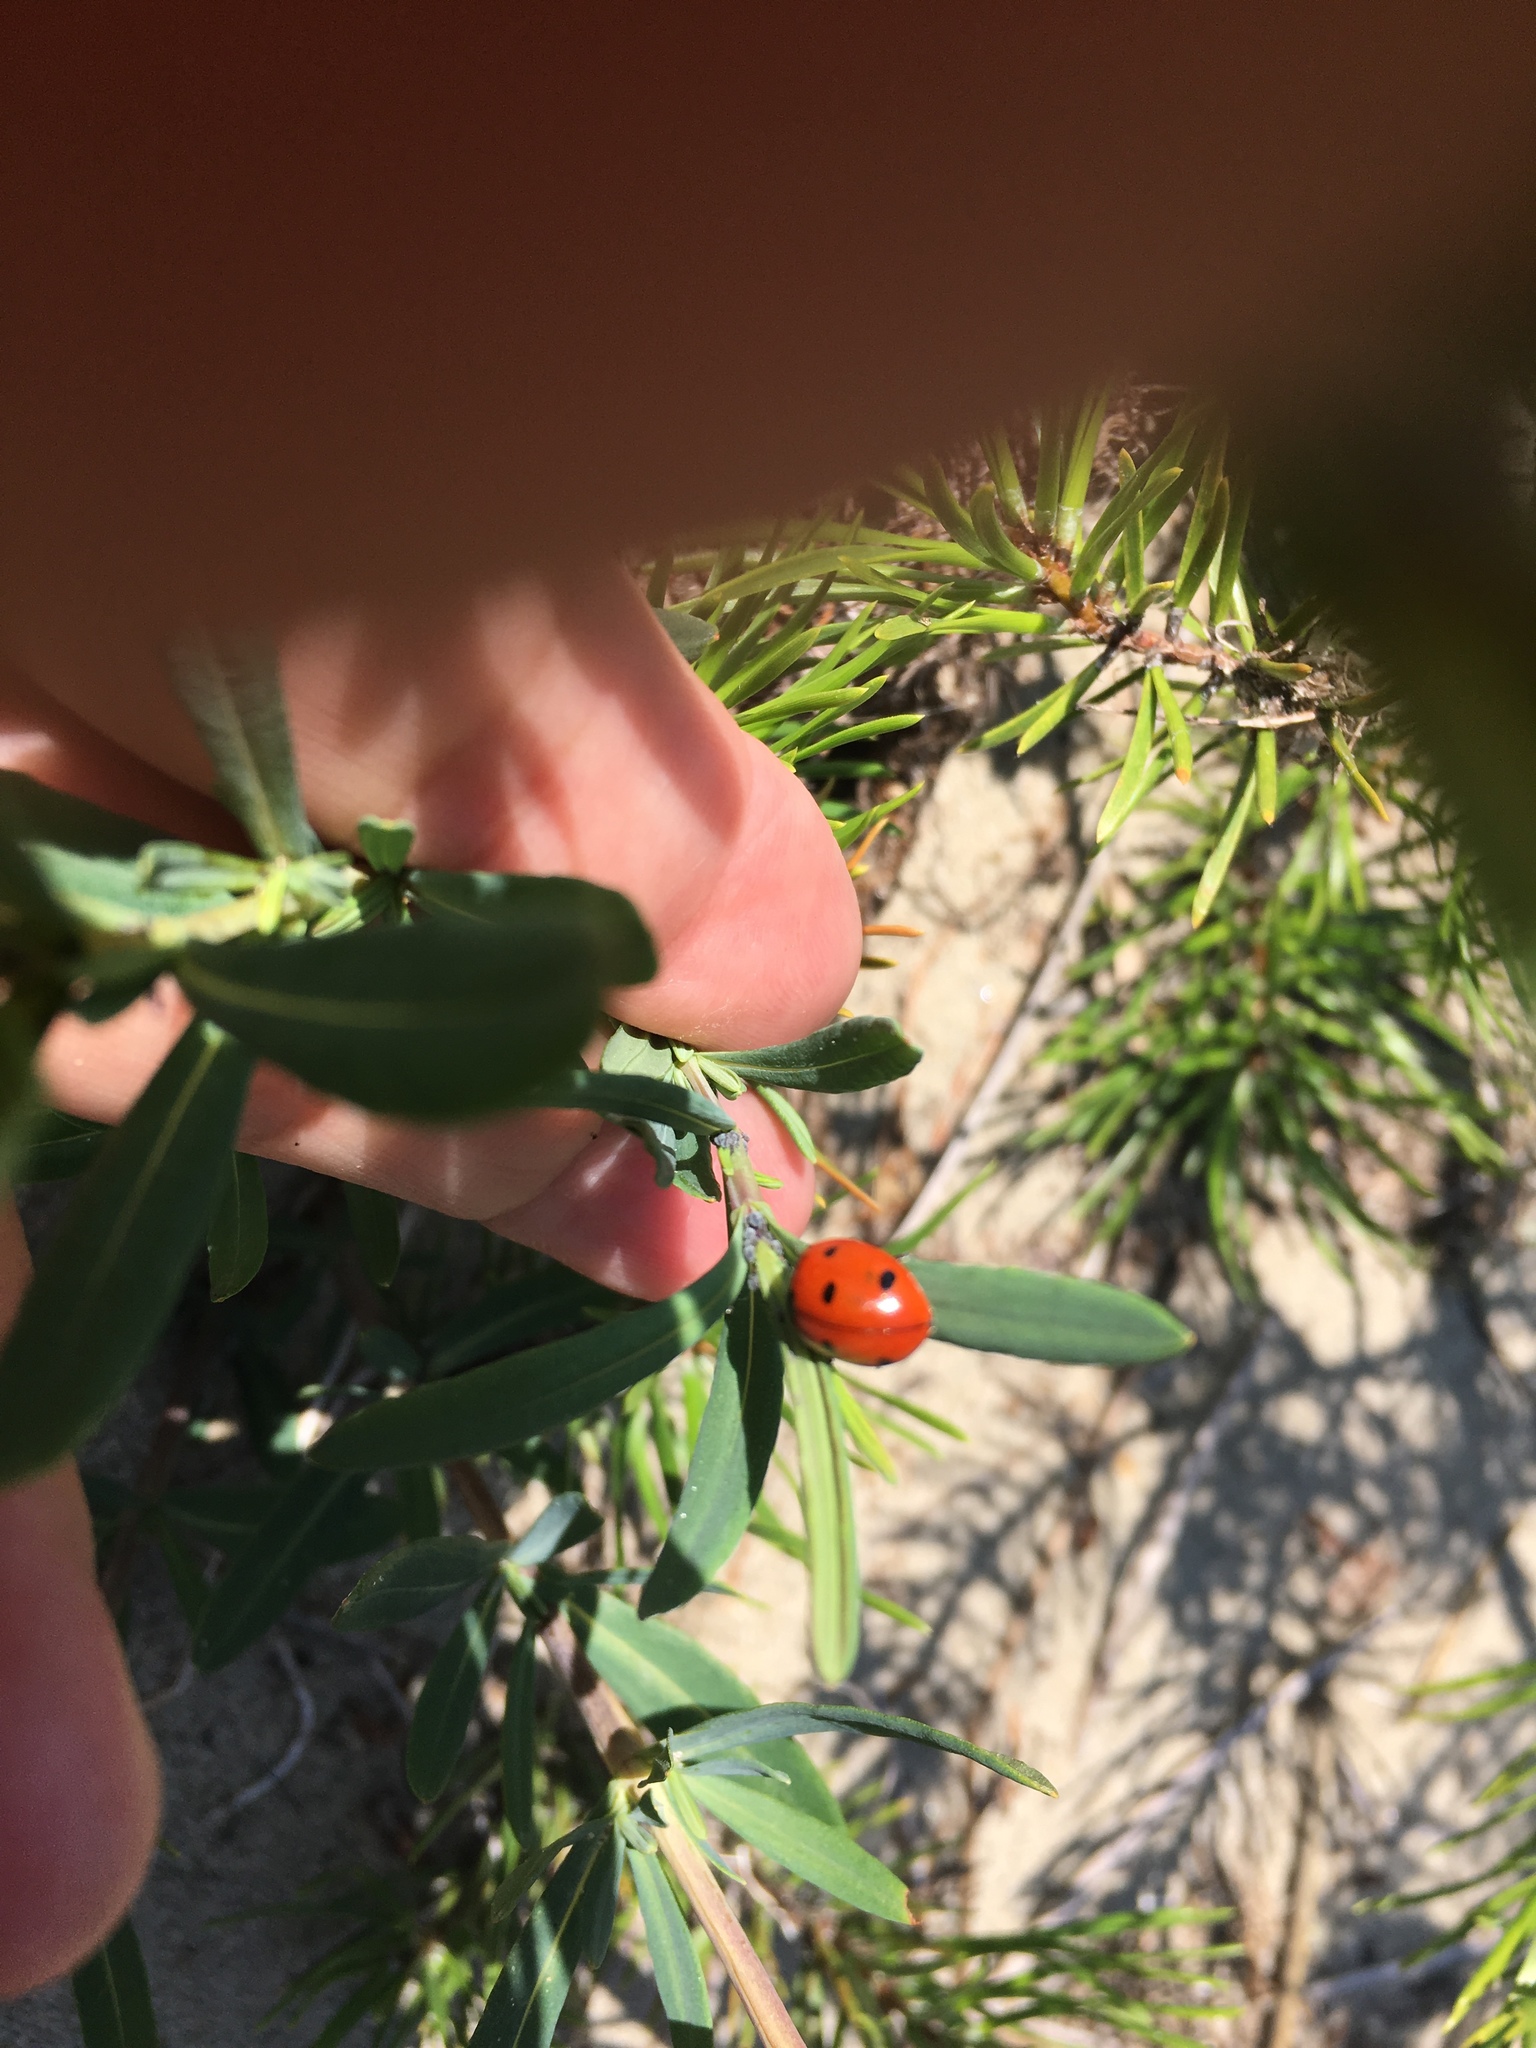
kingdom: Animalia
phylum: Arthropoda
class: Insecta
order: Coleoptera
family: Coccinellidae
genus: Coccinella
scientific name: Coccinella septempunctata
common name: Sevenspotted lady beetle
